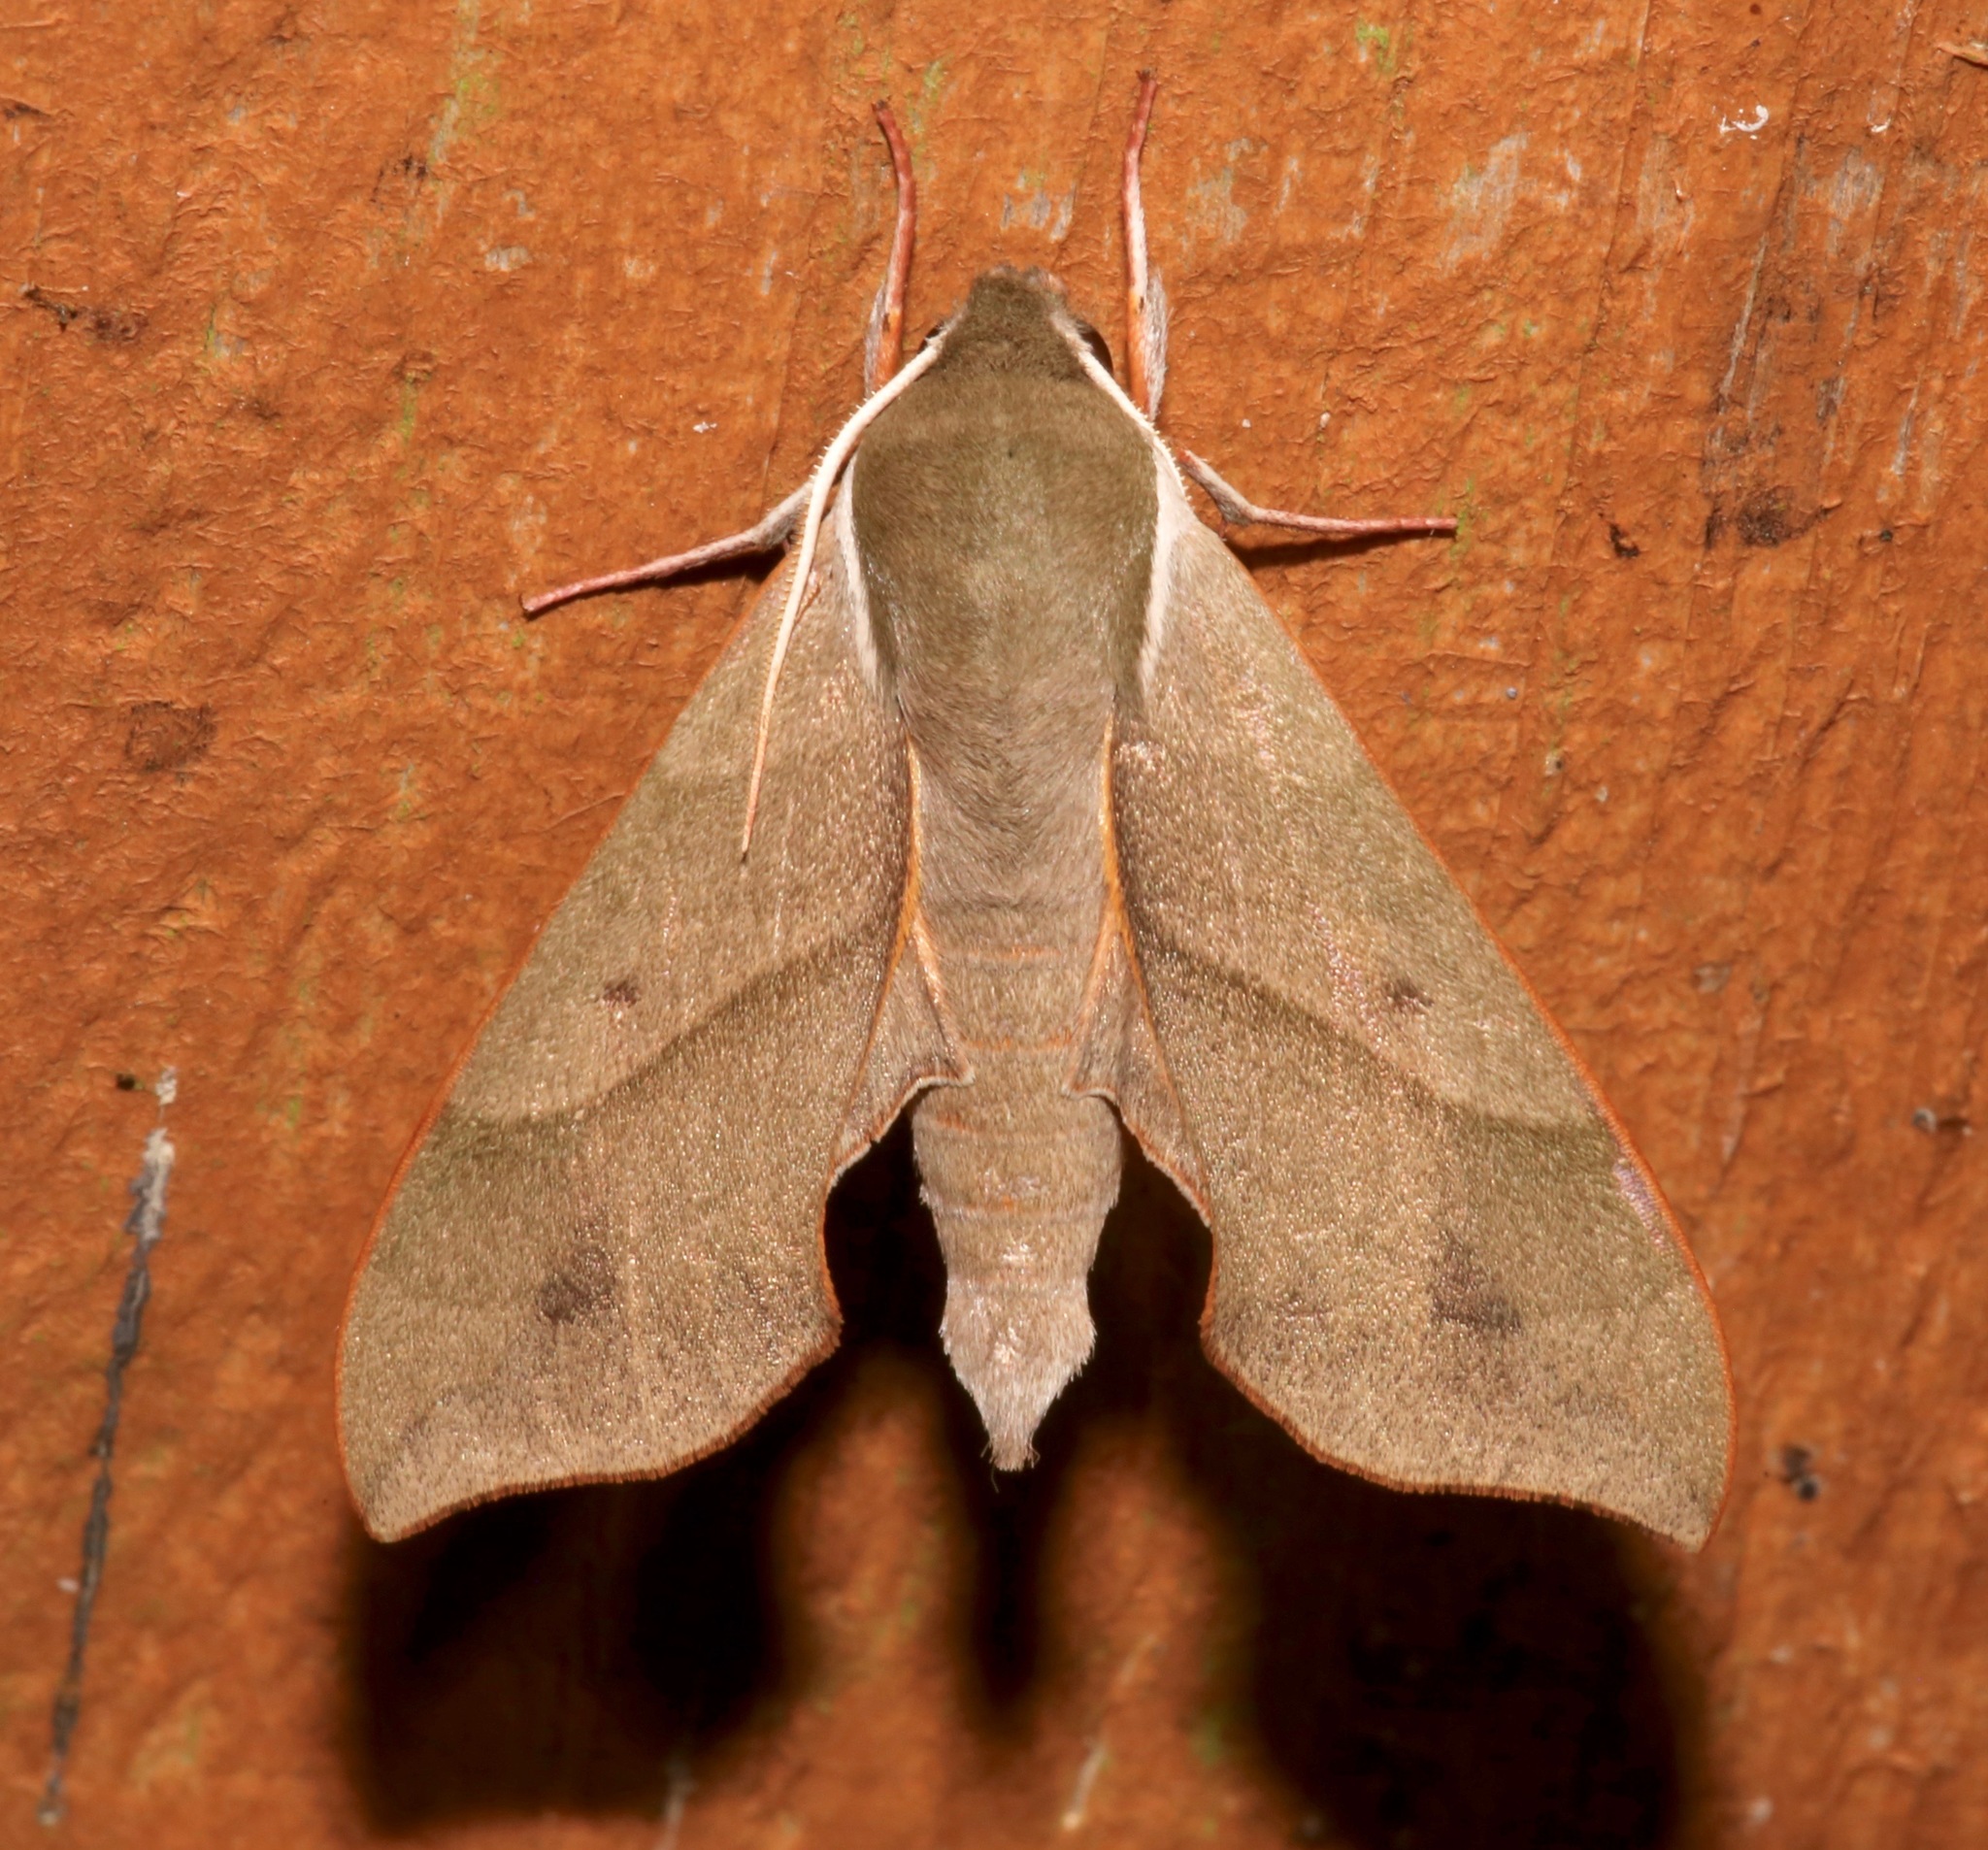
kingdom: Animalia
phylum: Arthropoda
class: Insecta
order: Lepidoptera
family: Sphingidae
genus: Darapsa
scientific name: Darapsa myron
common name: Hog sphinx
